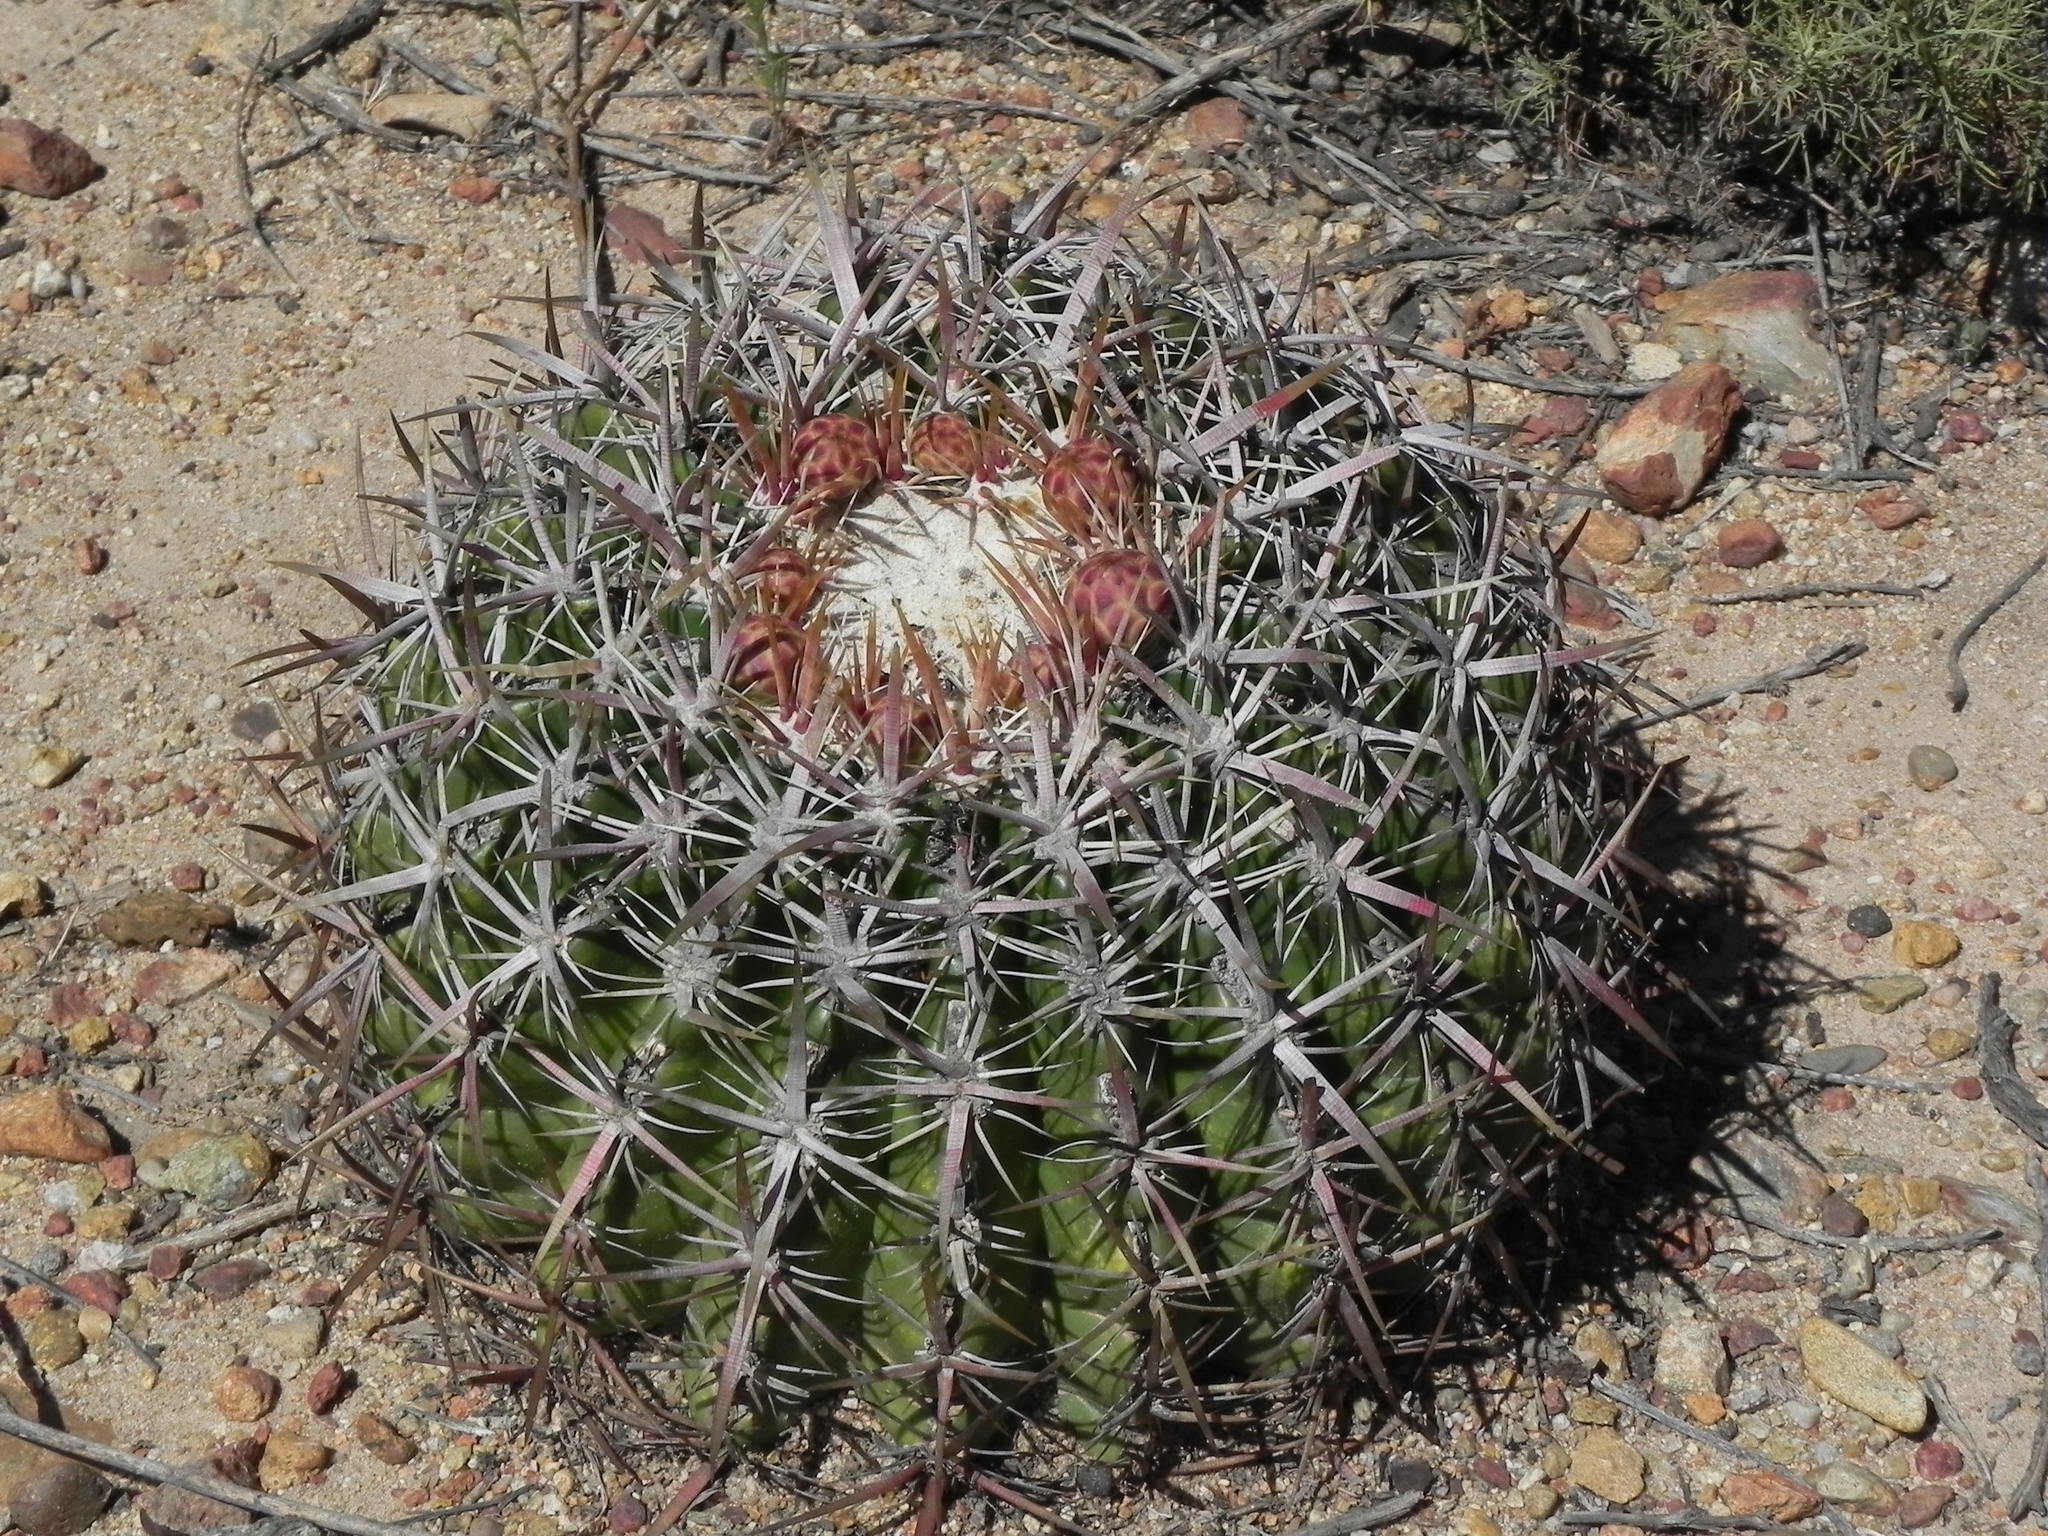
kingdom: Plantae
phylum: Tracheophyta
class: Magnoliopsida
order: Caryophyllales
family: Cactaceae
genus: Ferocactus
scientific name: Ferocactus viridescens
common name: San diego barrel cactus
